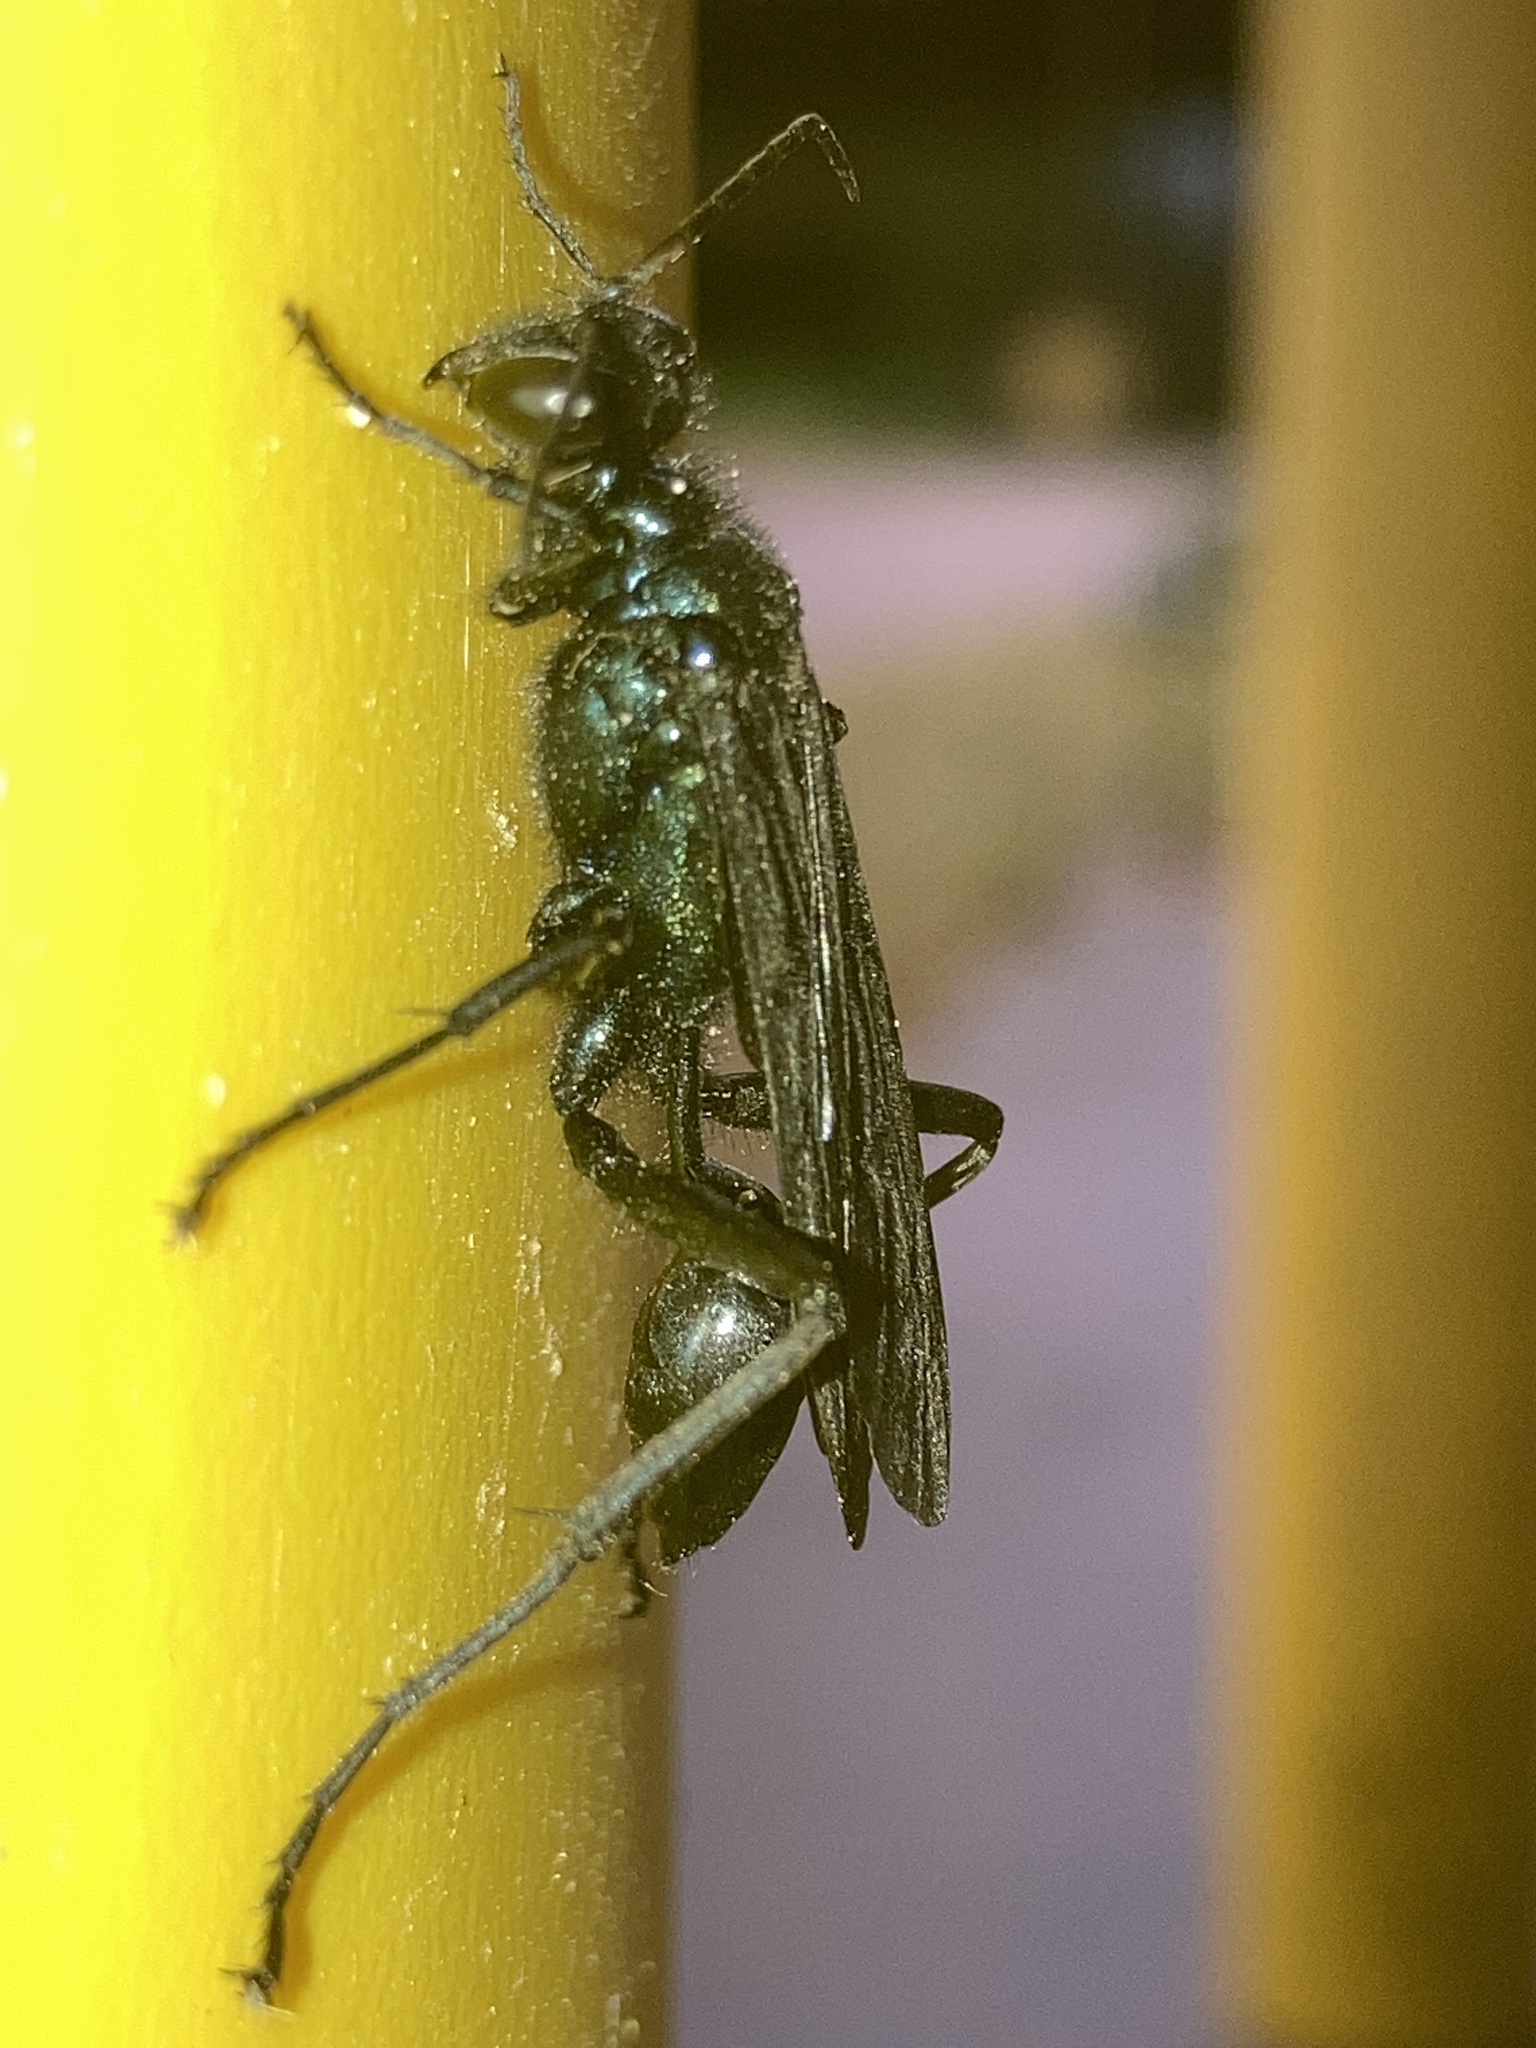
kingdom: Animalia
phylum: Arthropoda
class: Insecta
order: Hymenoptera
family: Sphecidae
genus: Chalybion
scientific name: Chalybion californicum
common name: Mud dauber
